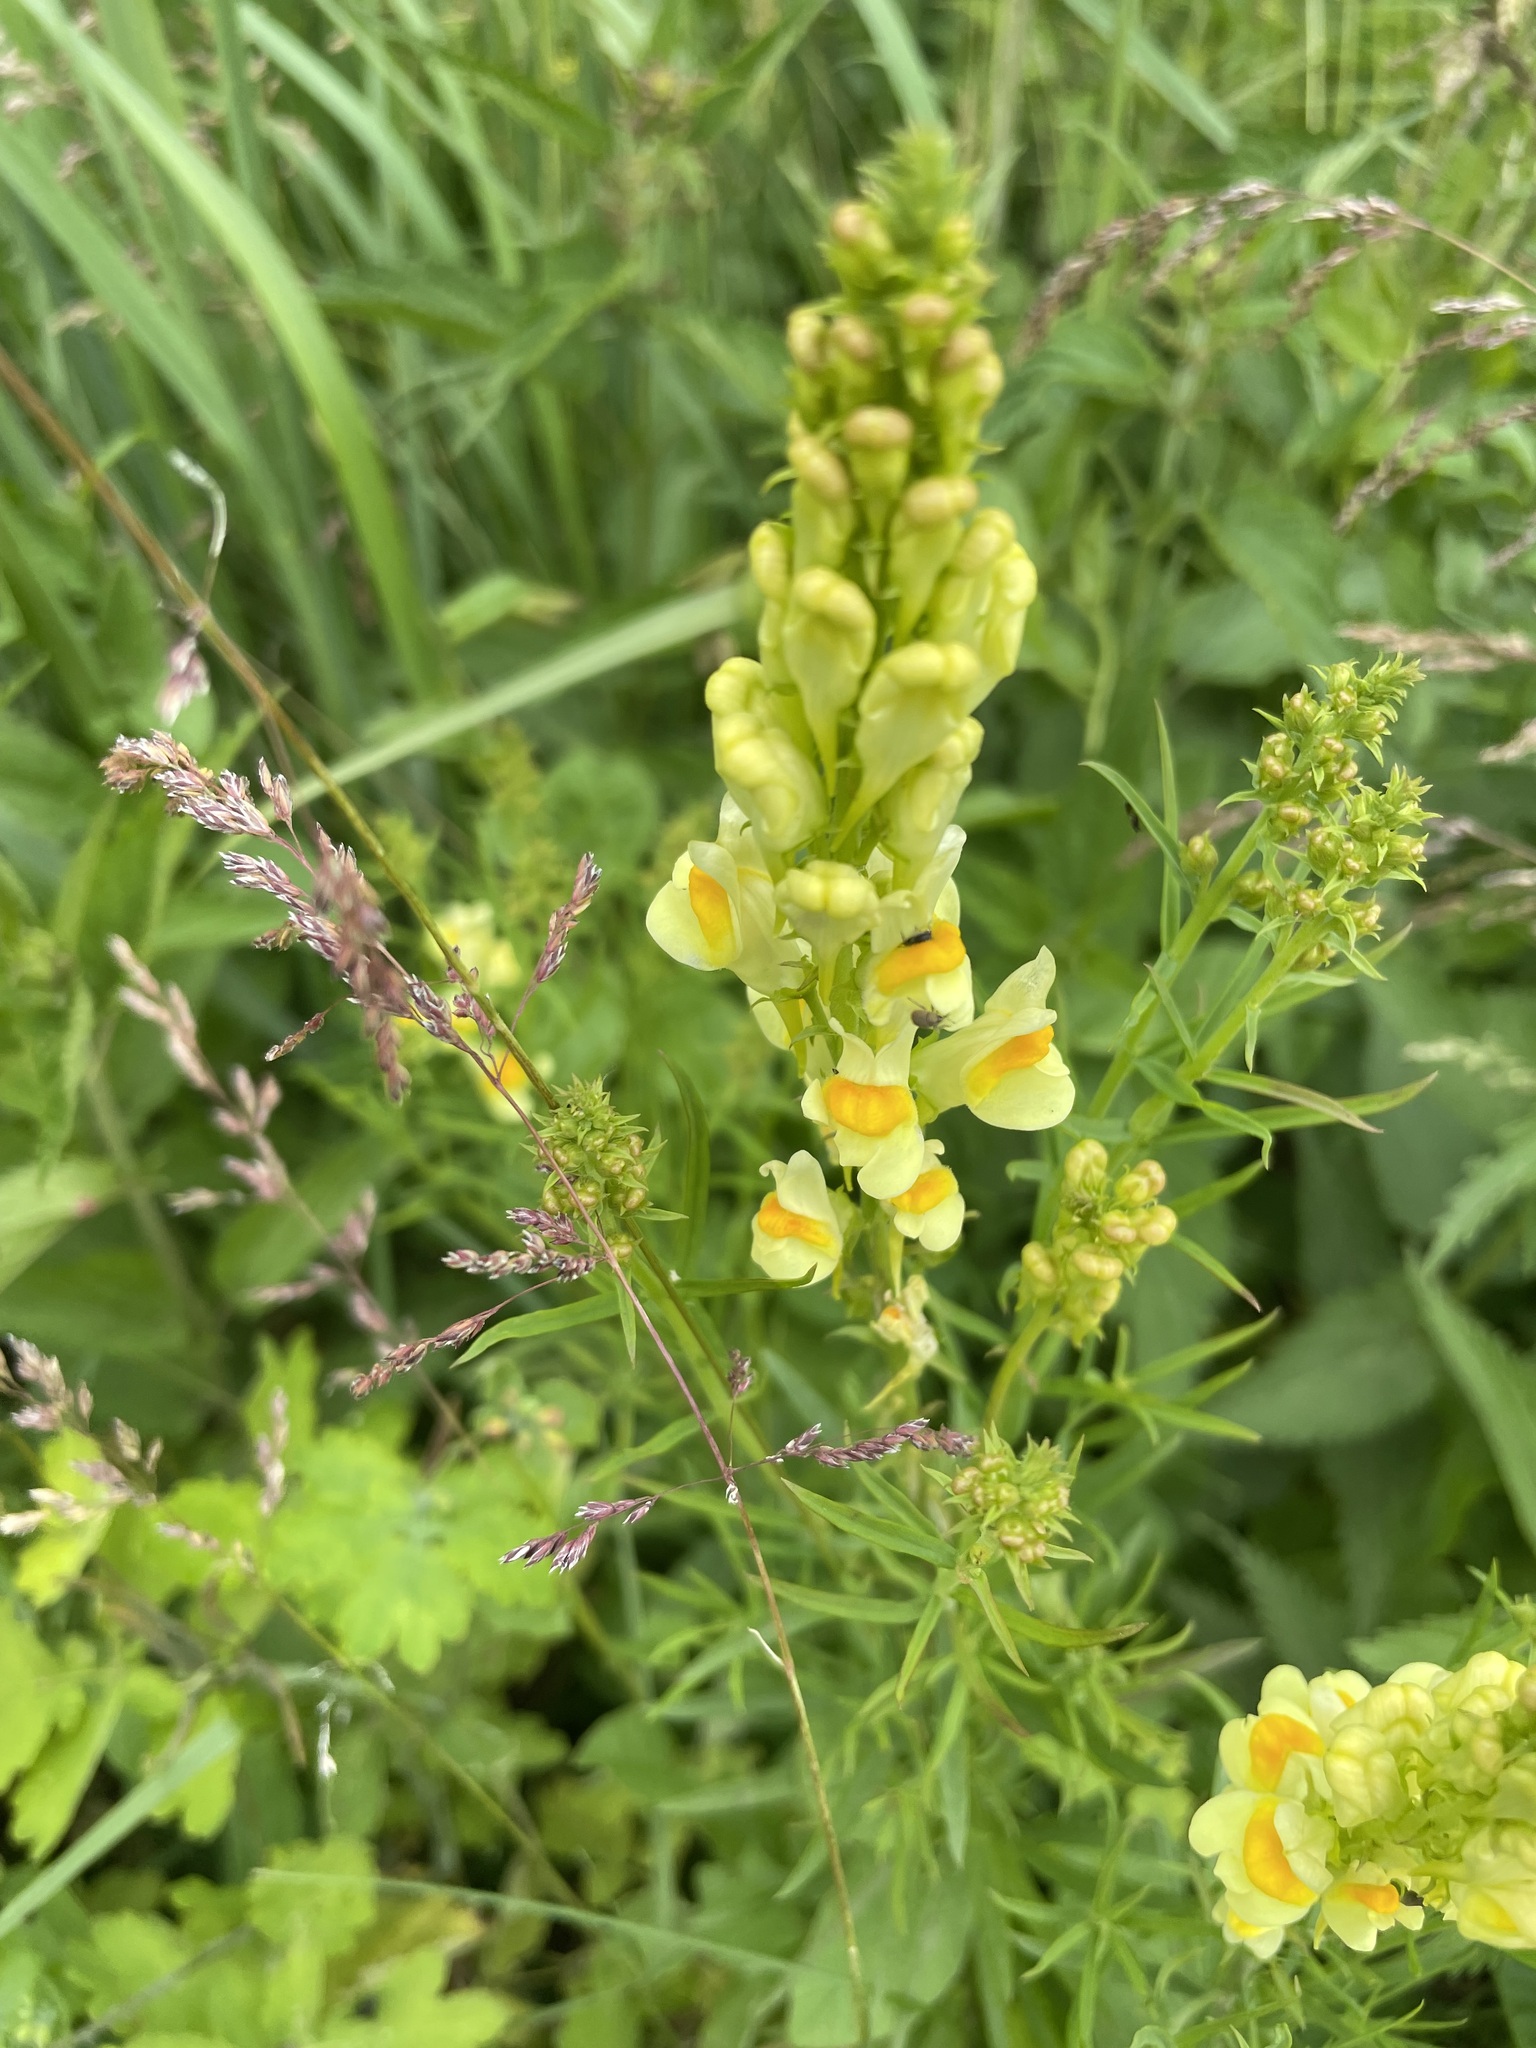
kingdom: Plantae
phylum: Tracheophyta
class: Magnoliopsida
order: Lamiales
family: Plantaginaceae
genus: Linaria
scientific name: Linaria vulgaris
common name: Butter and eggs
